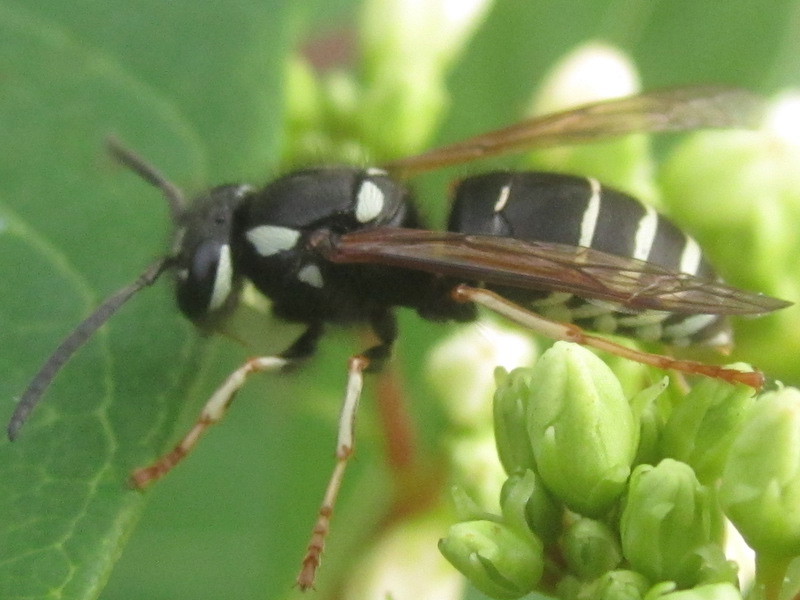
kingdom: Animalia
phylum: Arthropoda
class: Insecta
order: Hymenoptera
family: Vespidae
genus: Vespula
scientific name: Vespula consobrina
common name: Blackjacket
